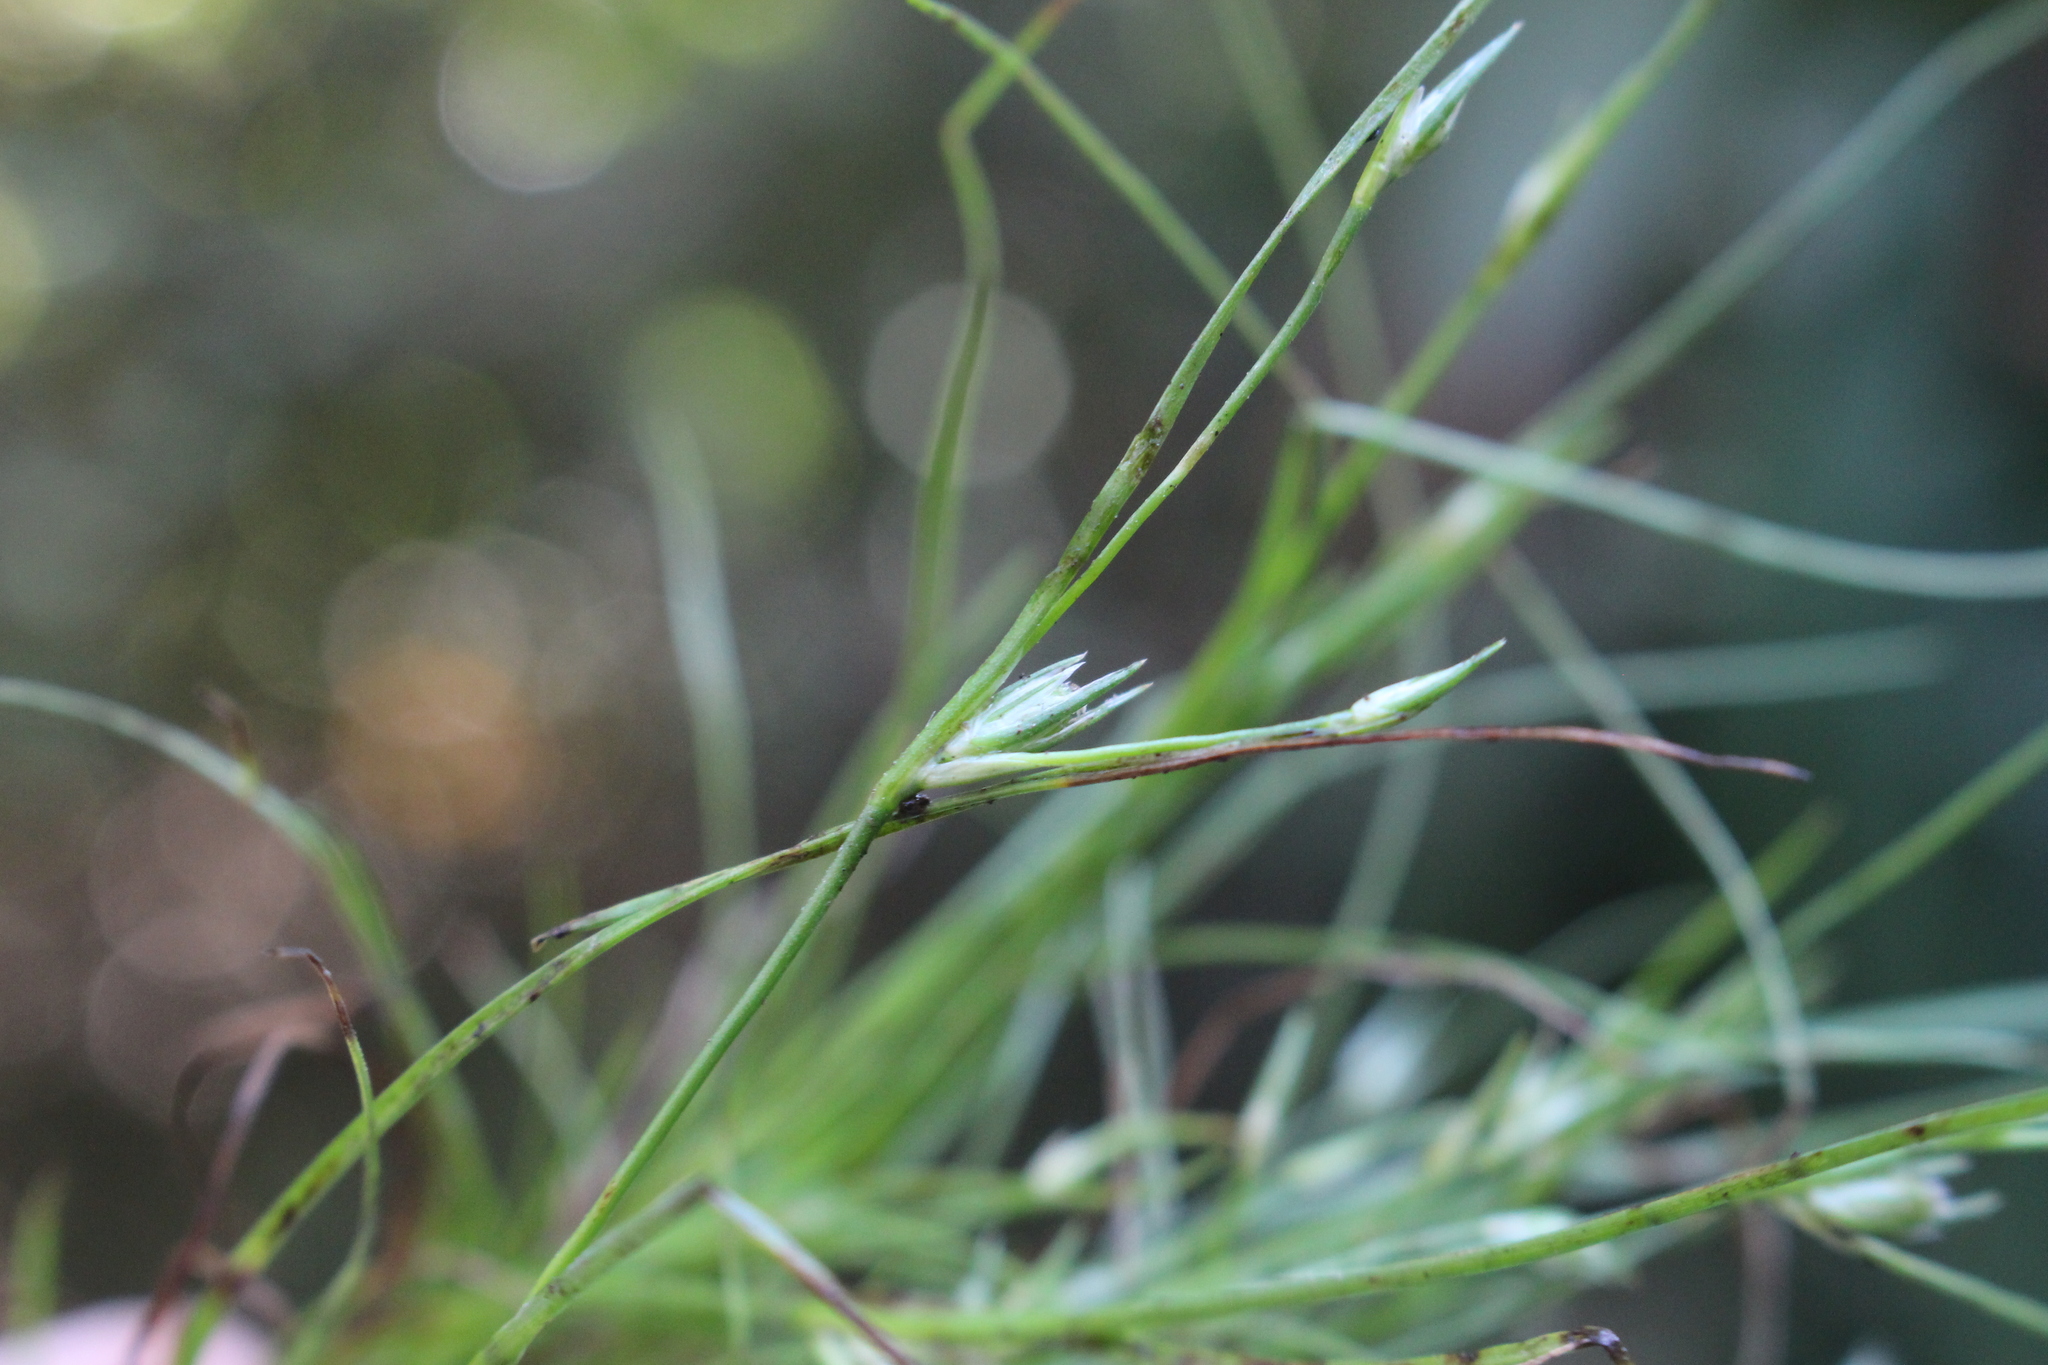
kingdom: Plantae
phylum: Tracheophyta
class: Liliopsida
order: Poales
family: Juncaceae
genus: Juncus
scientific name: Juncus bufonius
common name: Toad rush
